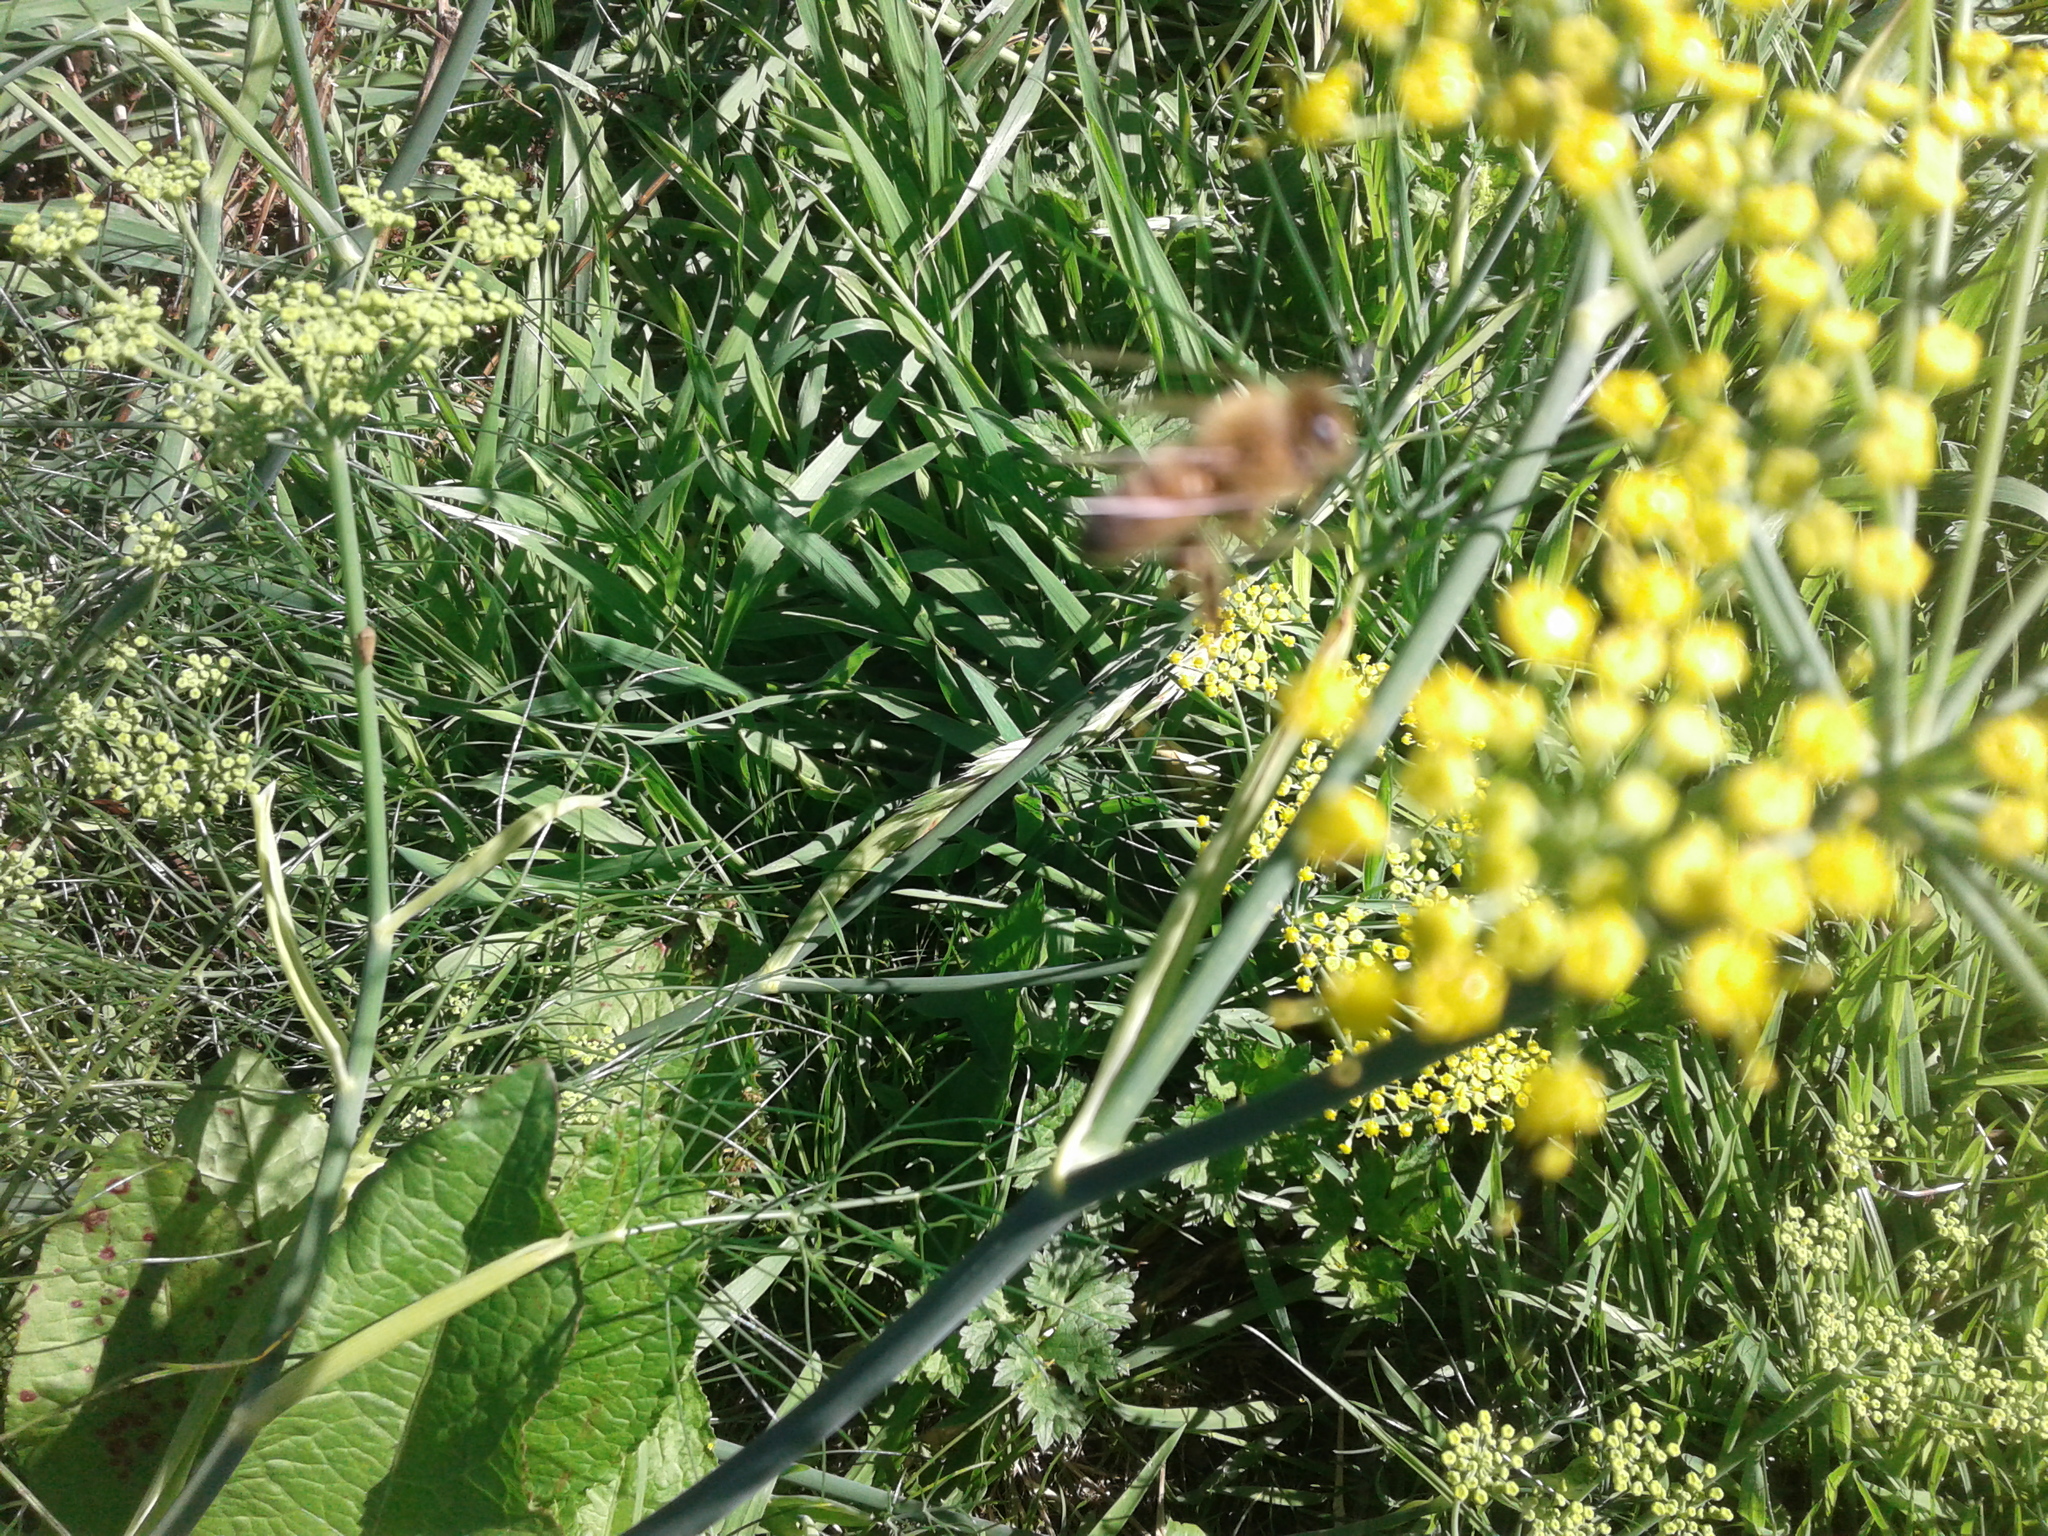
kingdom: Animalia
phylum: Arthropoda
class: Insecta
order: Hymenoptera
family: Apidae
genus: Apis
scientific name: Apis mellifera
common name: Honey bee
